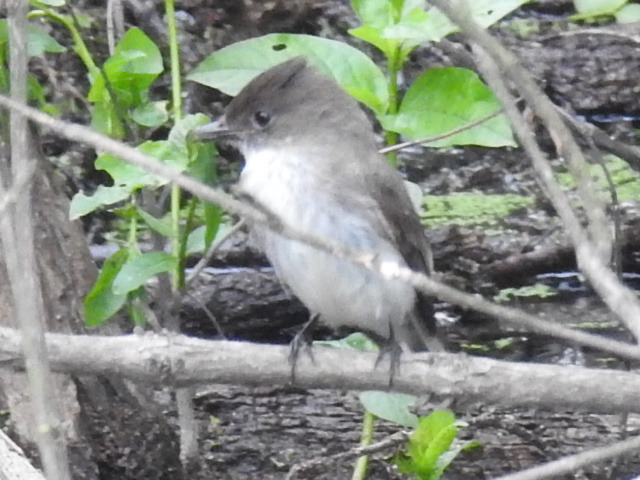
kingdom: Animalia
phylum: Chordata
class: Aves
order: Passeriformes
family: Tyrannidae
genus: Sayornis
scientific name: Sayornis phoebe
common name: Eastern phoebe
